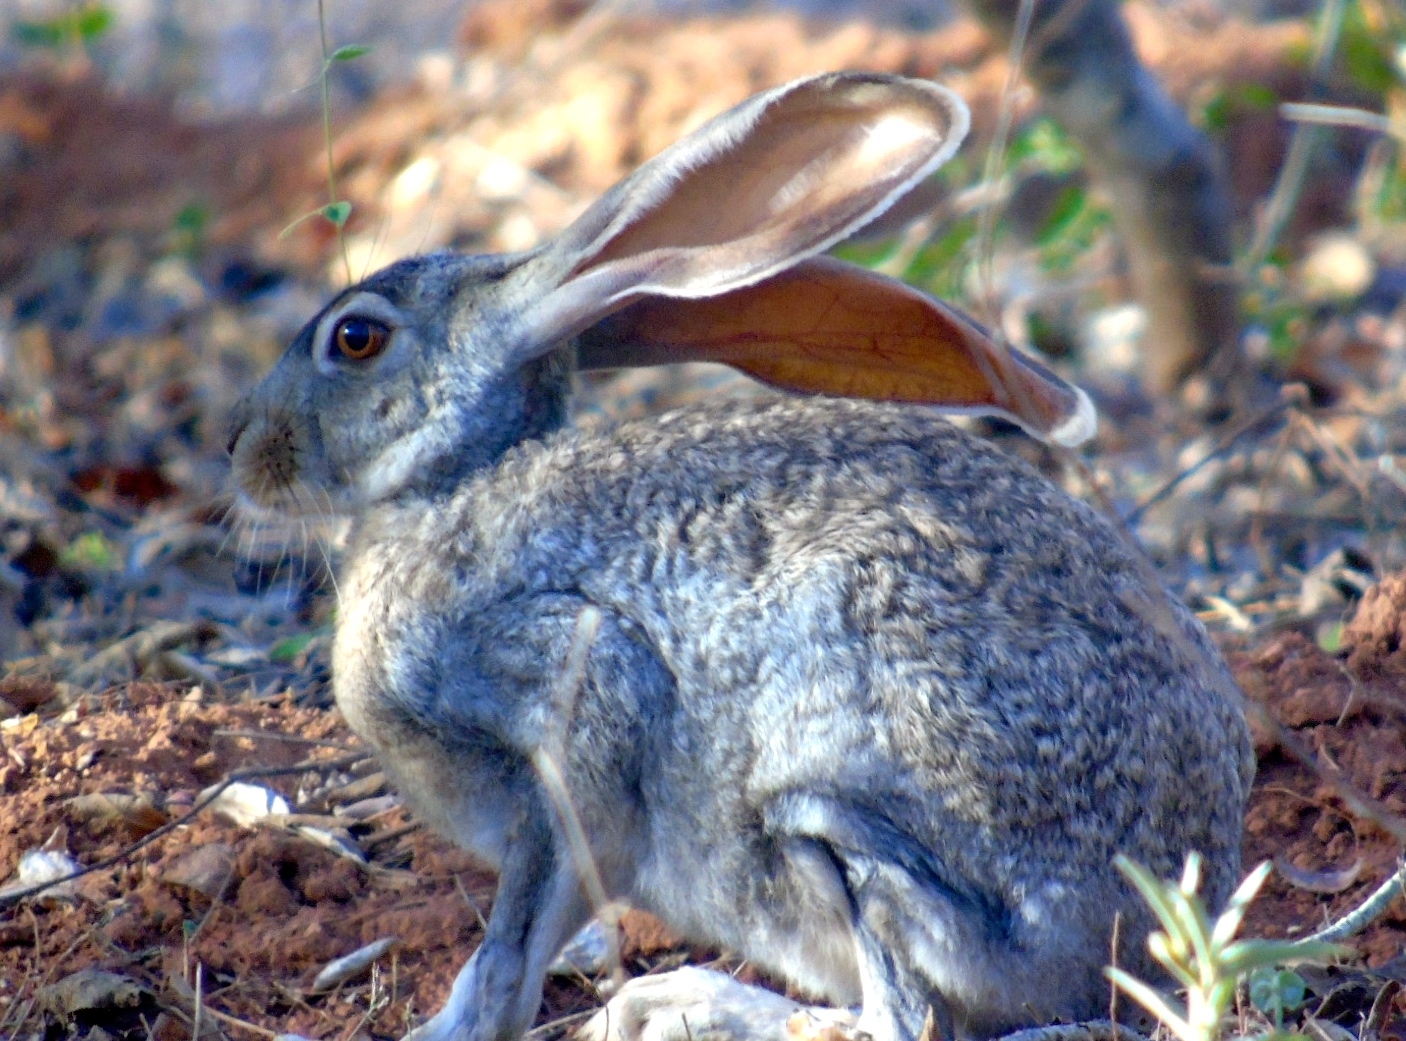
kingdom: Animalia
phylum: Chordata
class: Mammalia
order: Lagomorpha
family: Leporidae
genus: Lepus
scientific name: Lepus alleni
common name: Antelope jackrabbit
